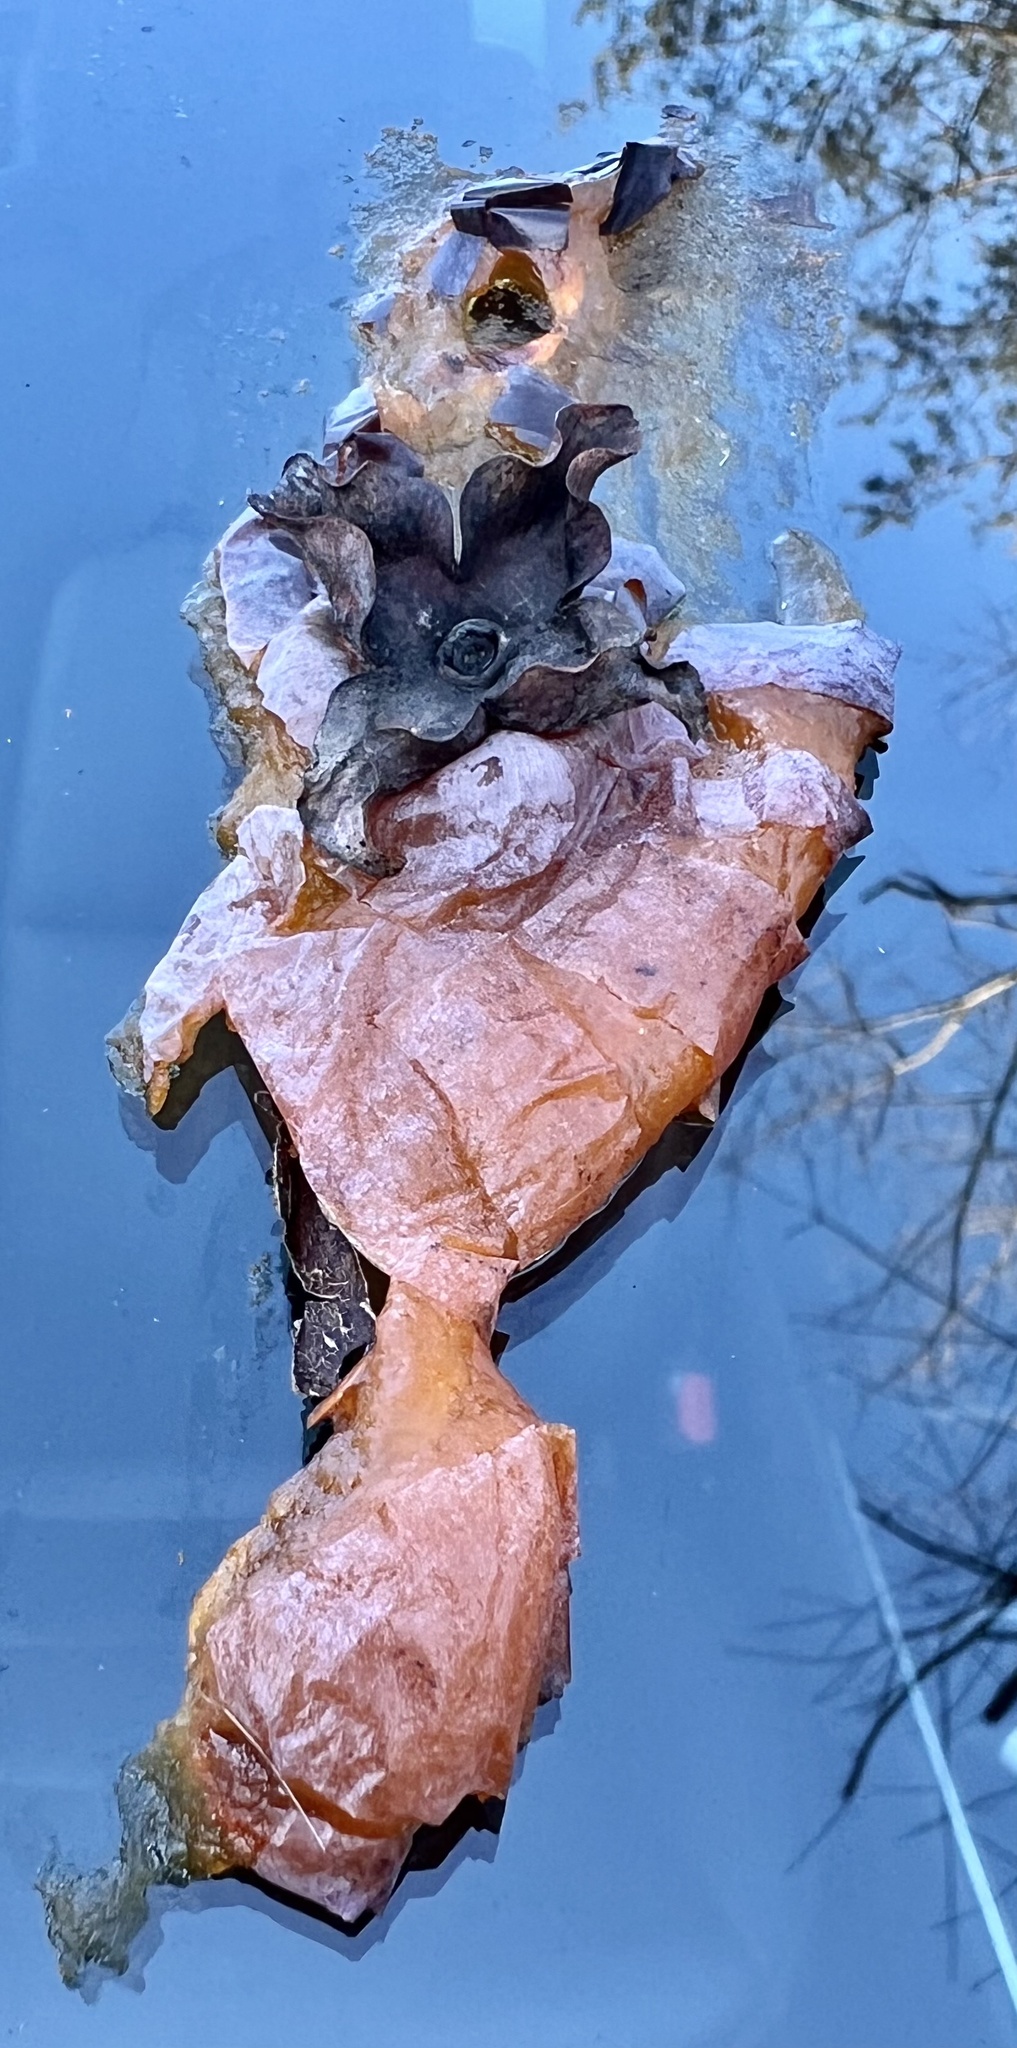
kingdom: Plantae
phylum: Tracheophyta
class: Magnoliopsida
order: Ericales
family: Ebenaceae
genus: Diospyros
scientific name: Diospyros virginiana
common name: Persimmon
